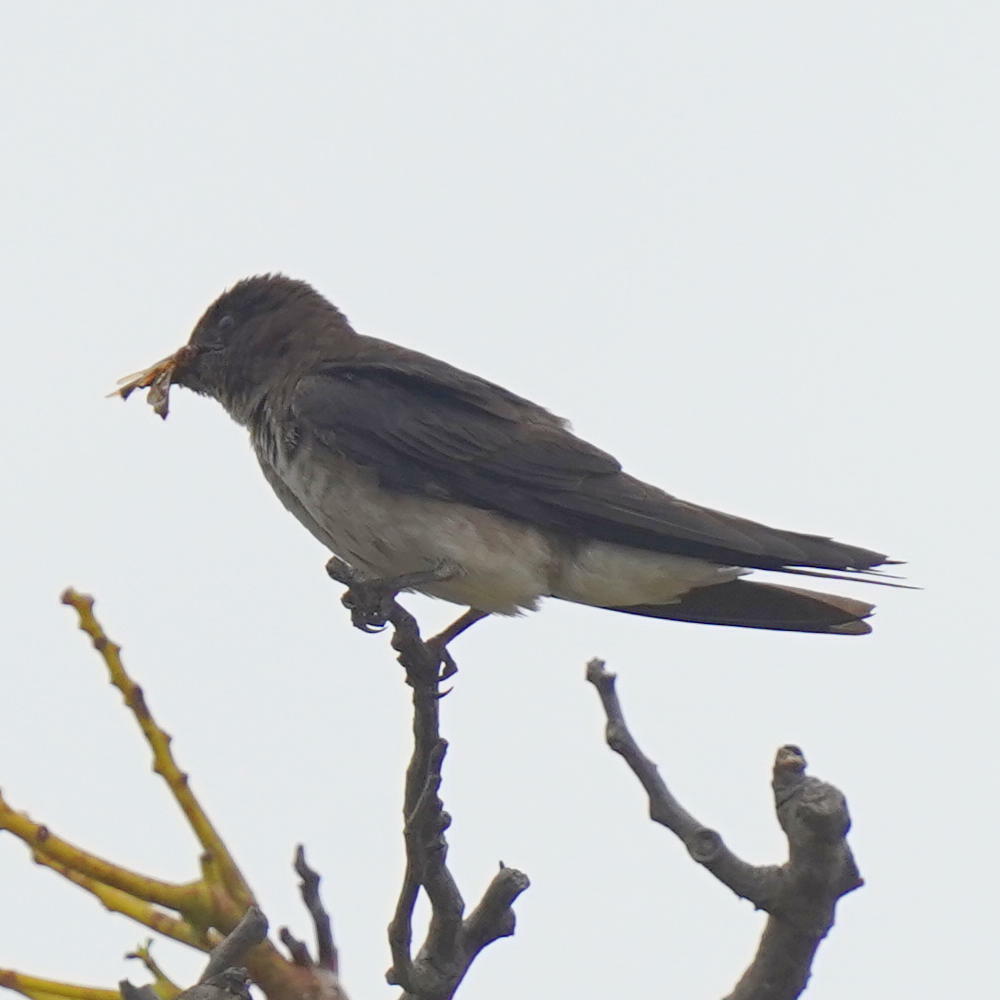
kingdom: Animalia
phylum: Chordata
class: Aves
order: Passeriformes
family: Hirundinidae
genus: Progne
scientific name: Progne chalybea
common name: Grey-breasted martin
